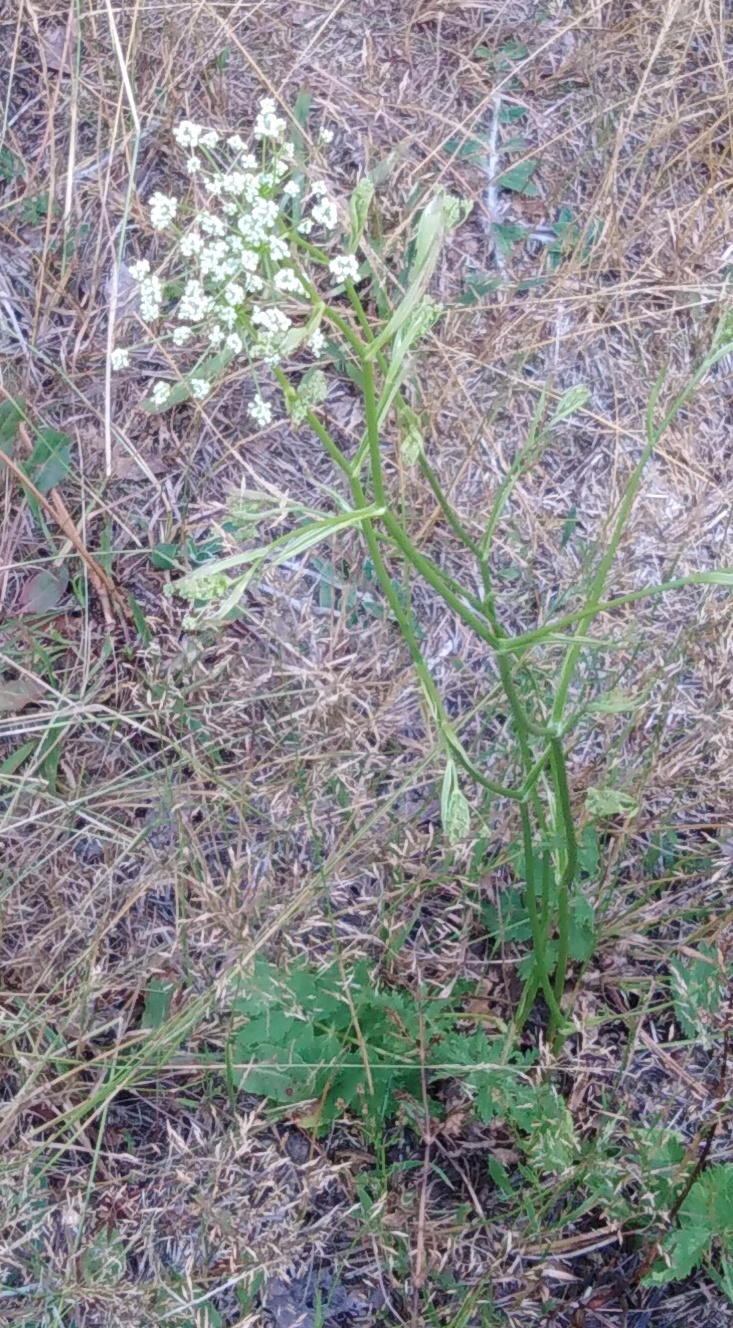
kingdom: Plantae
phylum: Tracheophyta
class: Magnoliopsida
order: Apiales
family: Apiaceae
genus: Pimpinella
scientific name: Pimpinella saxifraga
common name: Burnet-saxifrage
